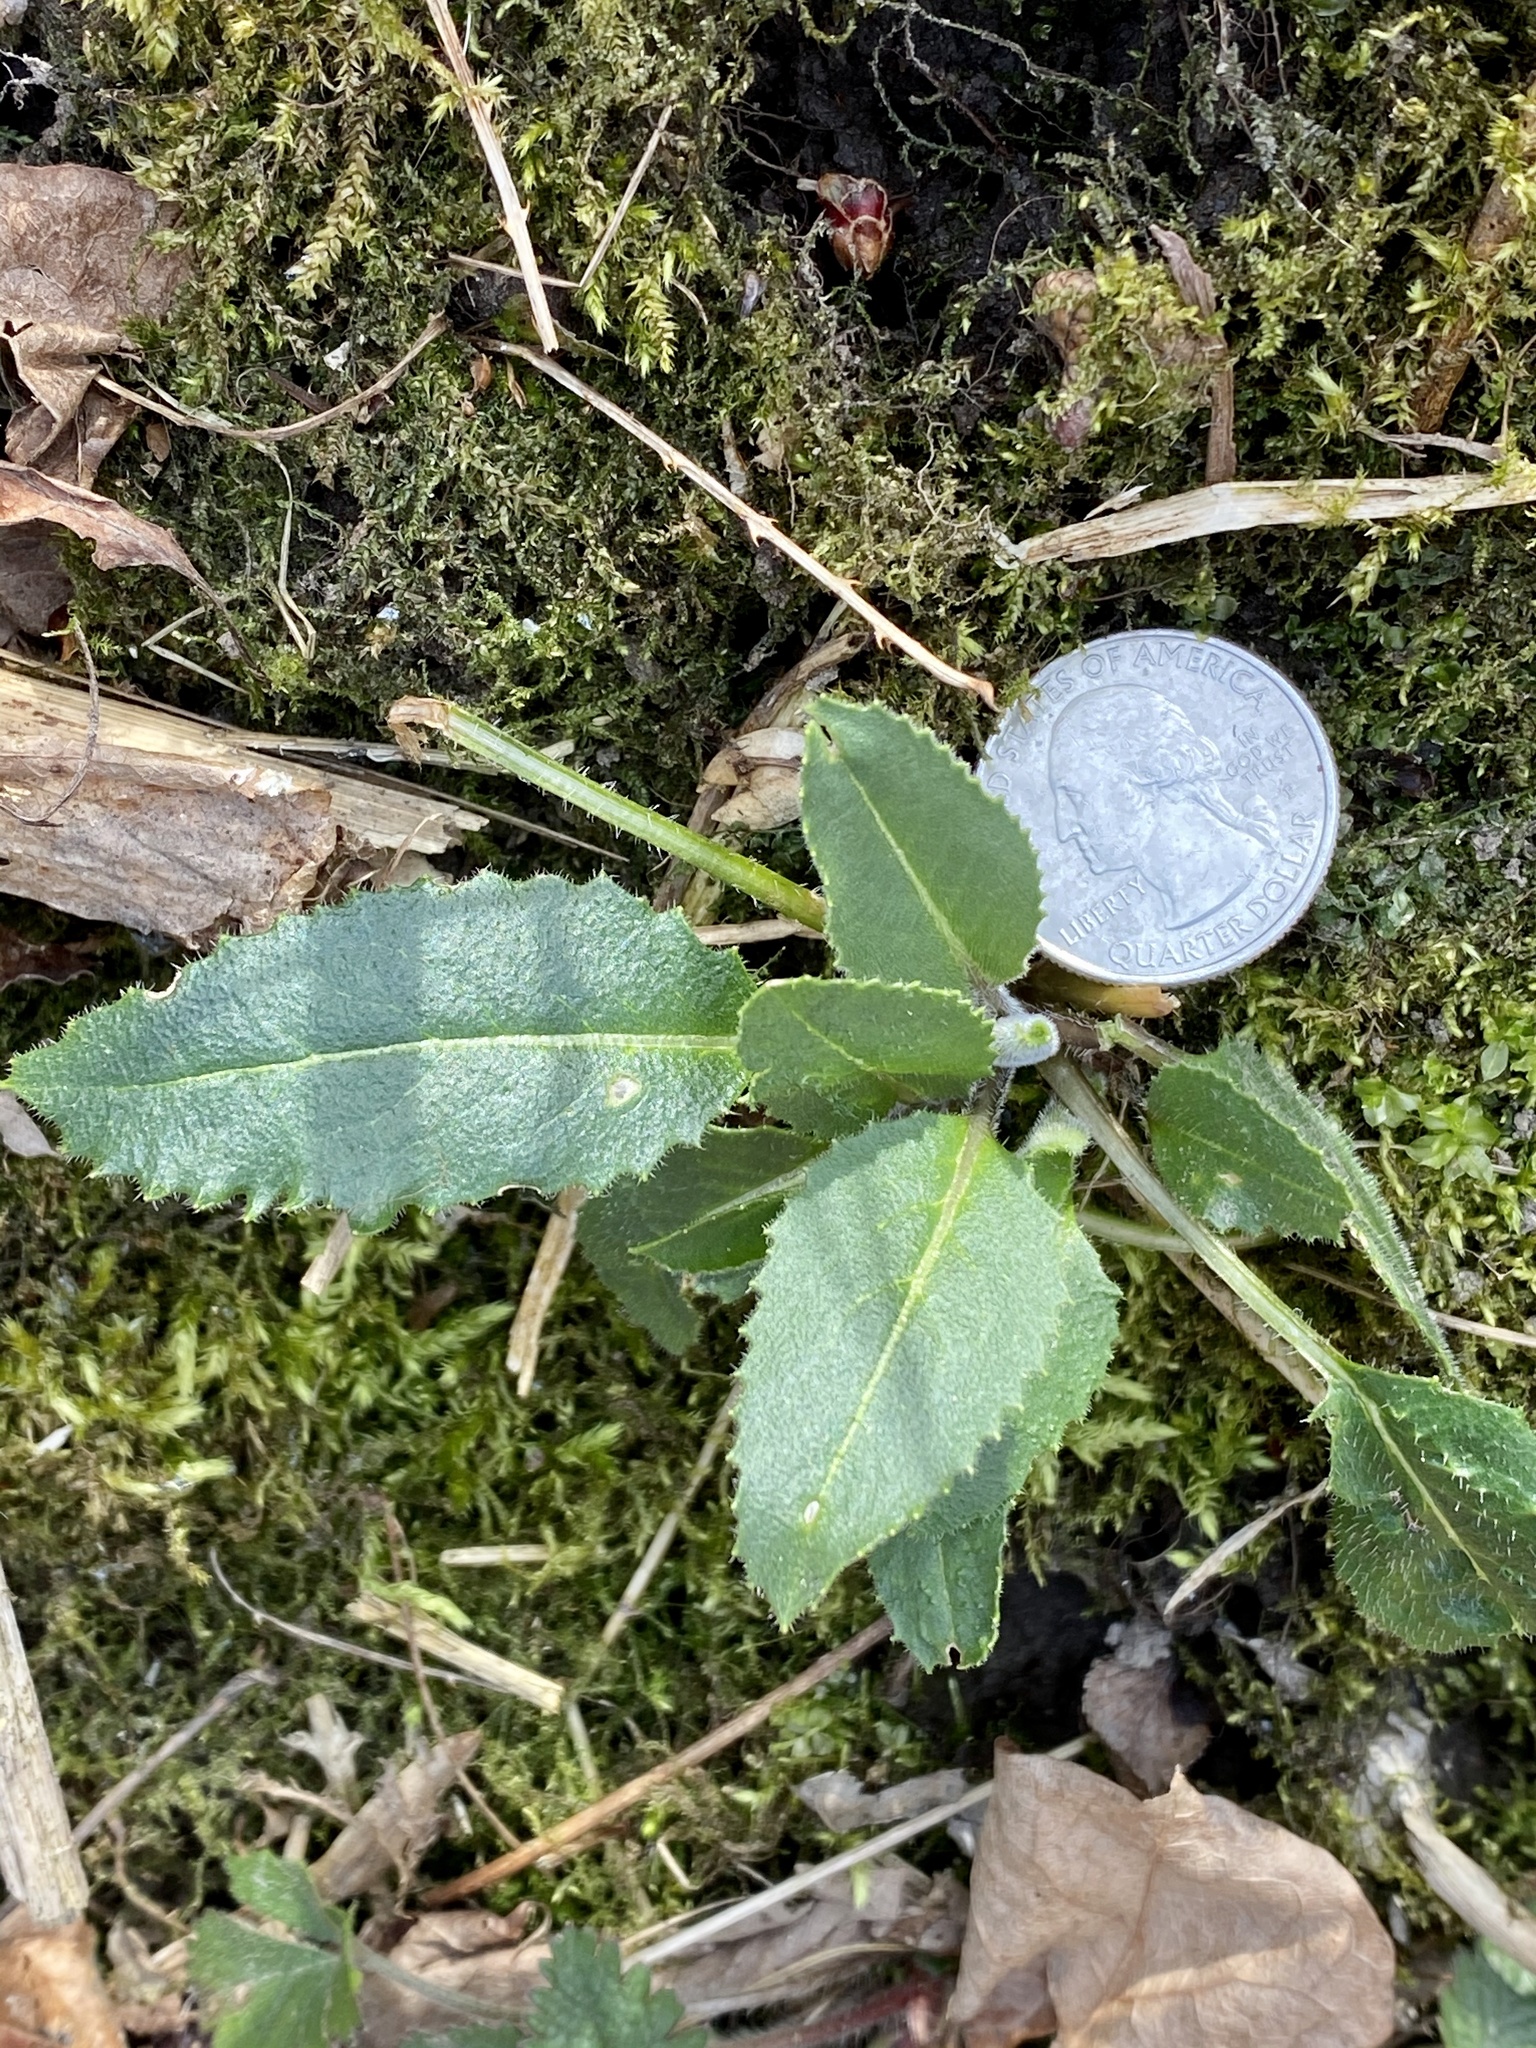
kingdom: Plantae
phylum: Tracheophyta
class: Magnoliopsida
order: Brassicales
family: Brassicaceae
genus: Hesperis
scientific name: Hesperis matronalis
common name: Dame's-violet
